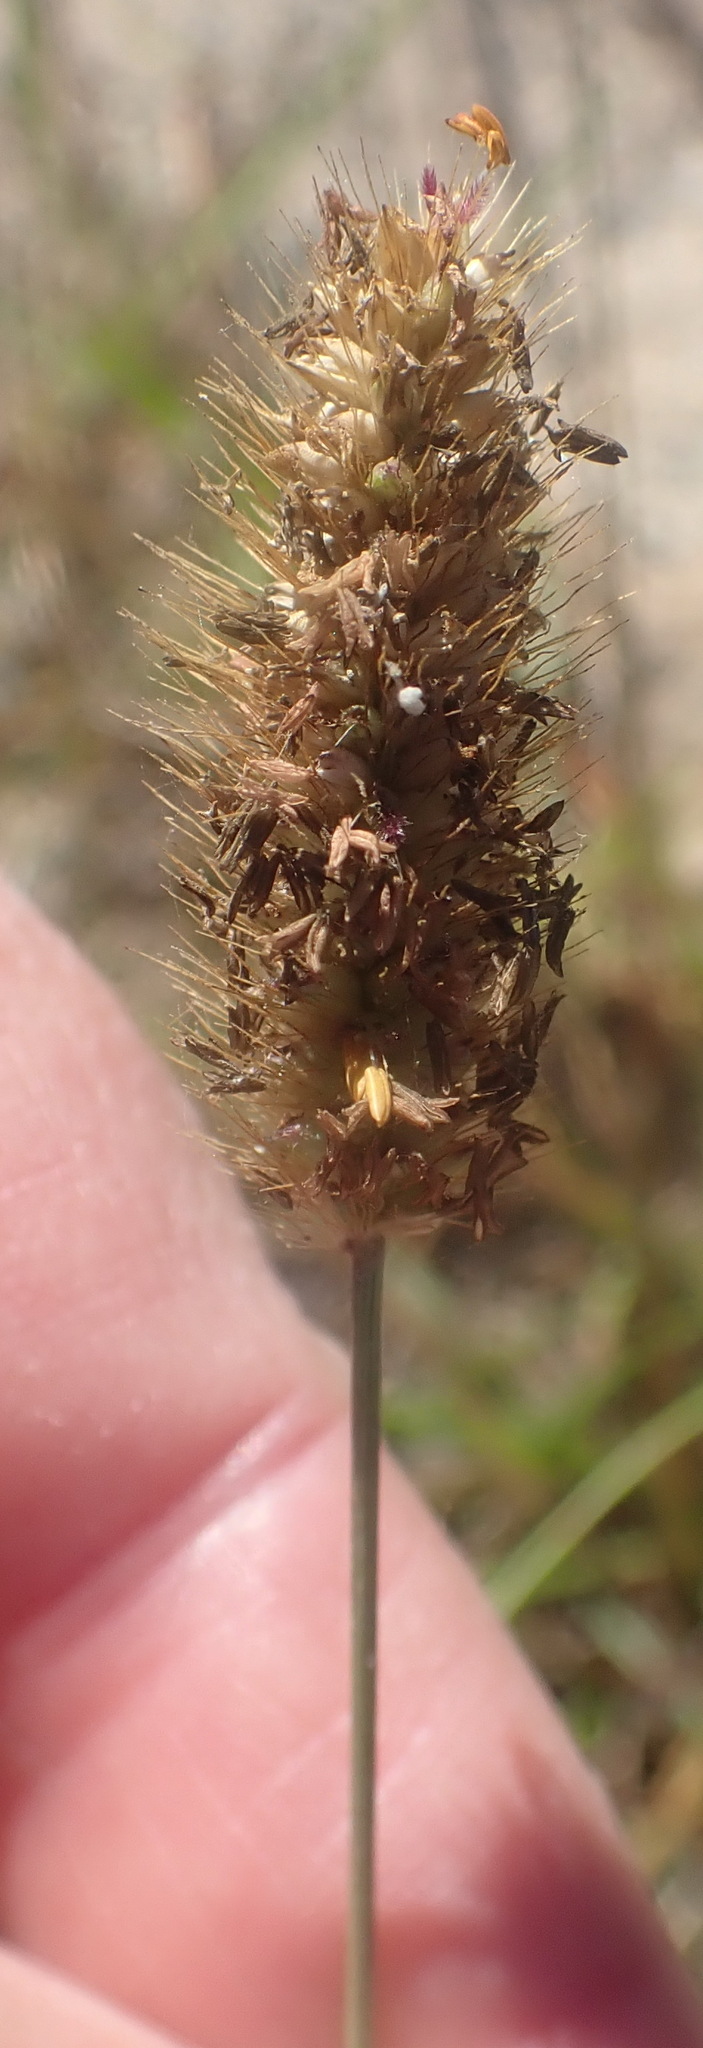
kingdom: Plantae
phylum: Tracheophyta
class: Liliopsida
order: Poales
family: Poaceae
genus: Setaria
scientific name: Setaria viridis
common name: Green bristlegrass
